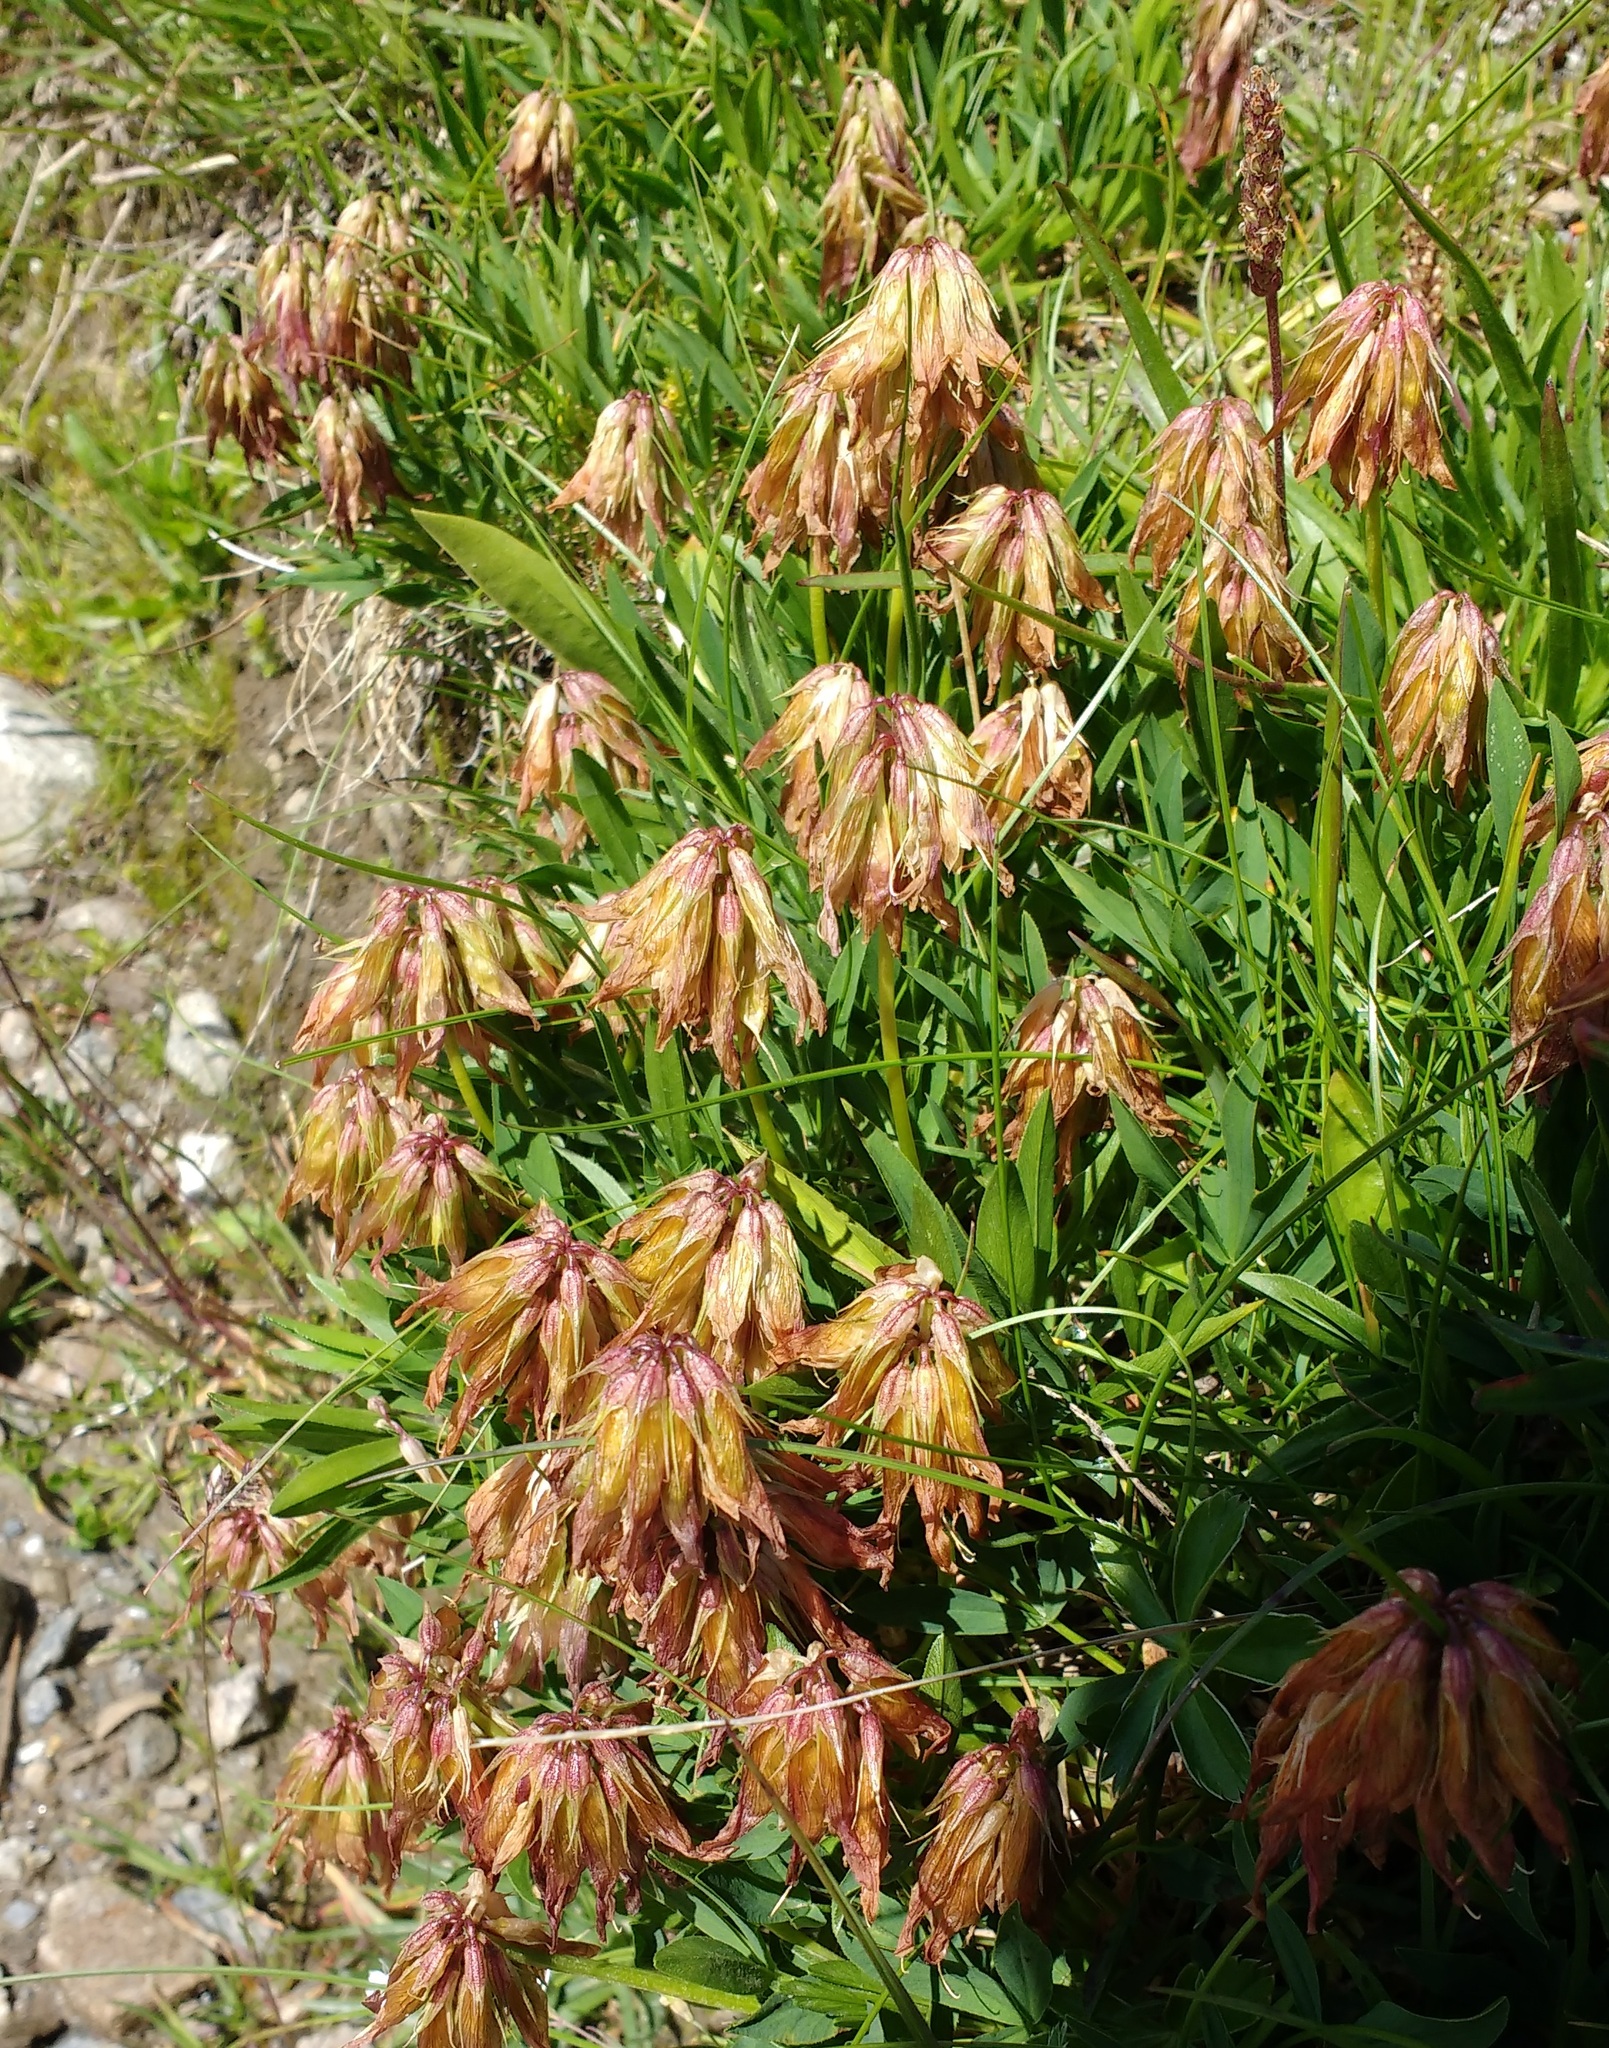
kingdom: Plantae
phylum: Tracheophyta
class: Magnoliopsida
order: Fabales
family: Fabaceae
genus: Trifolium
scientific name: Trifolium alpinum
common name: Alpine clover
